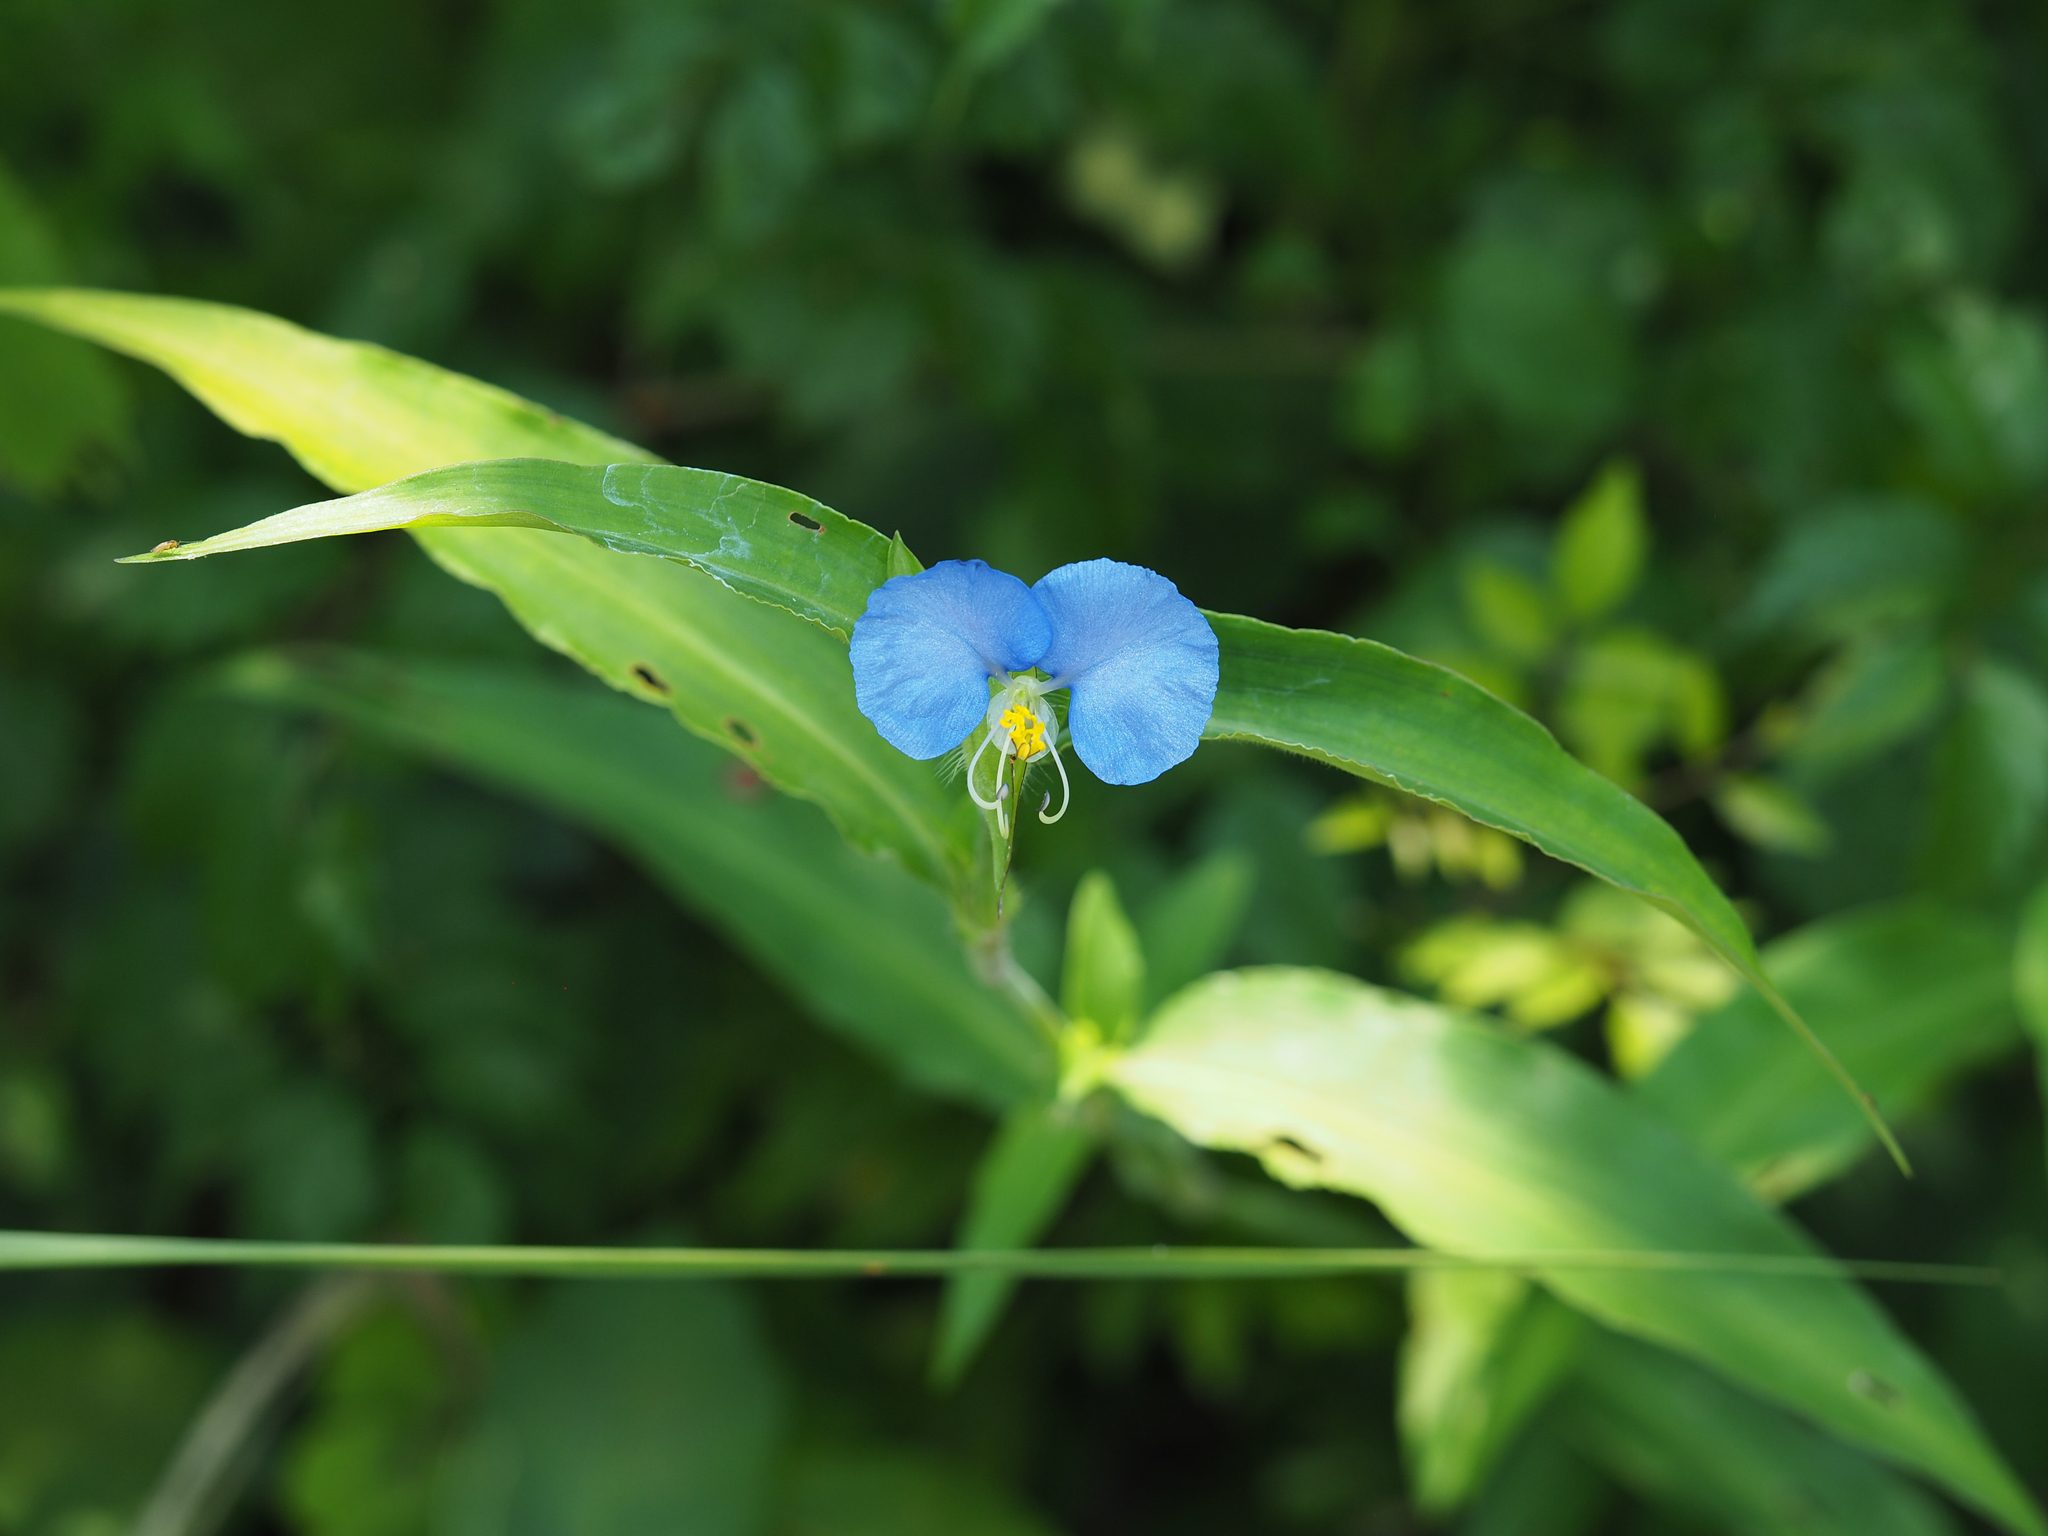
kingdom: Plantae
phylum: Tracheophyta
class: Liliopsida
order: Commelinales
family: Commelinaceae
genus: Commelina
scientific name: Commelina erecta
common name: Blousel blommetjie
